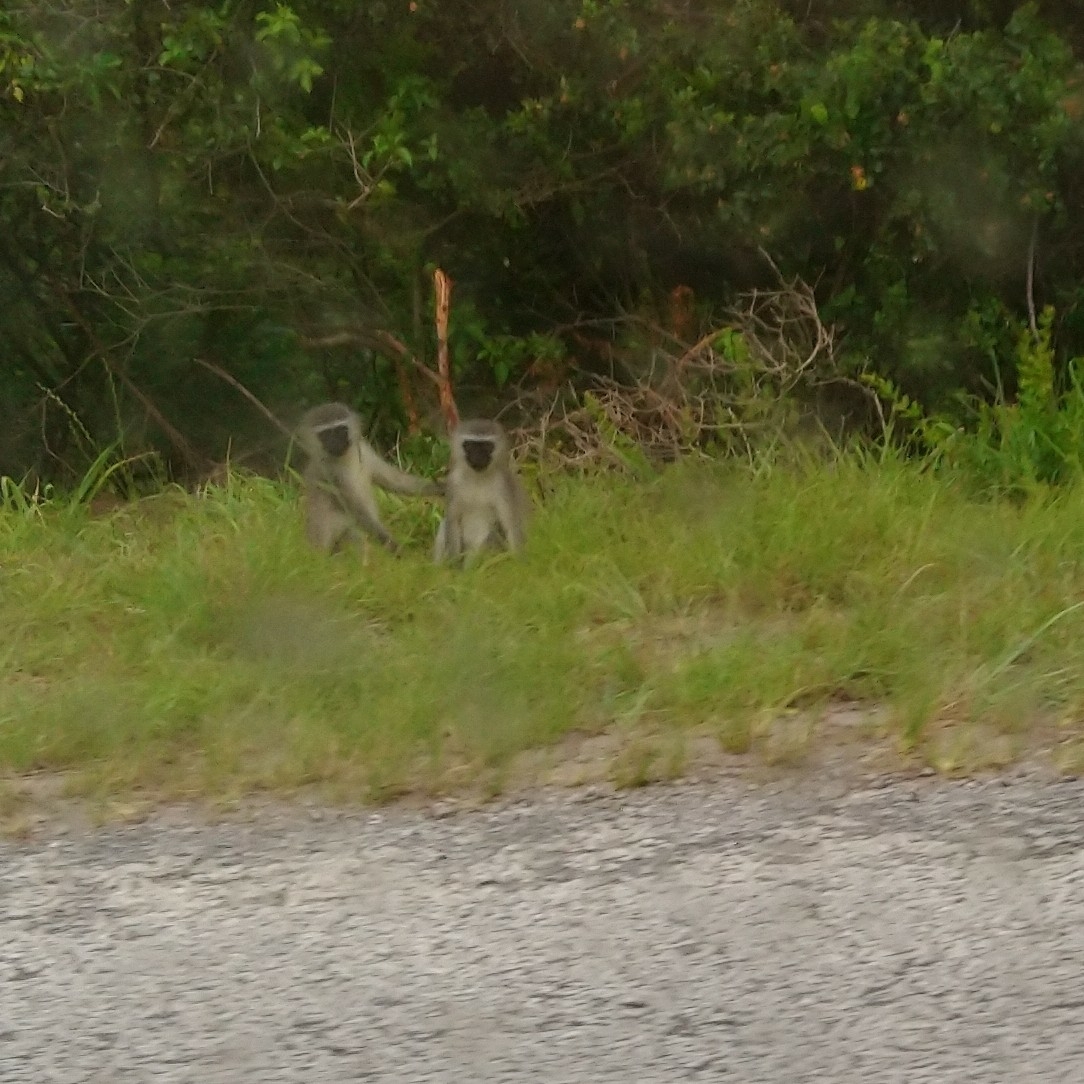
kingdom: Animalia
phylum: Chordata
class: Mammalia
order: Primates
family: Cercopithecidae
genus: Chlorocebus
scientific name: Chlorocebus pygerythrus
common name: Vervet monkey
